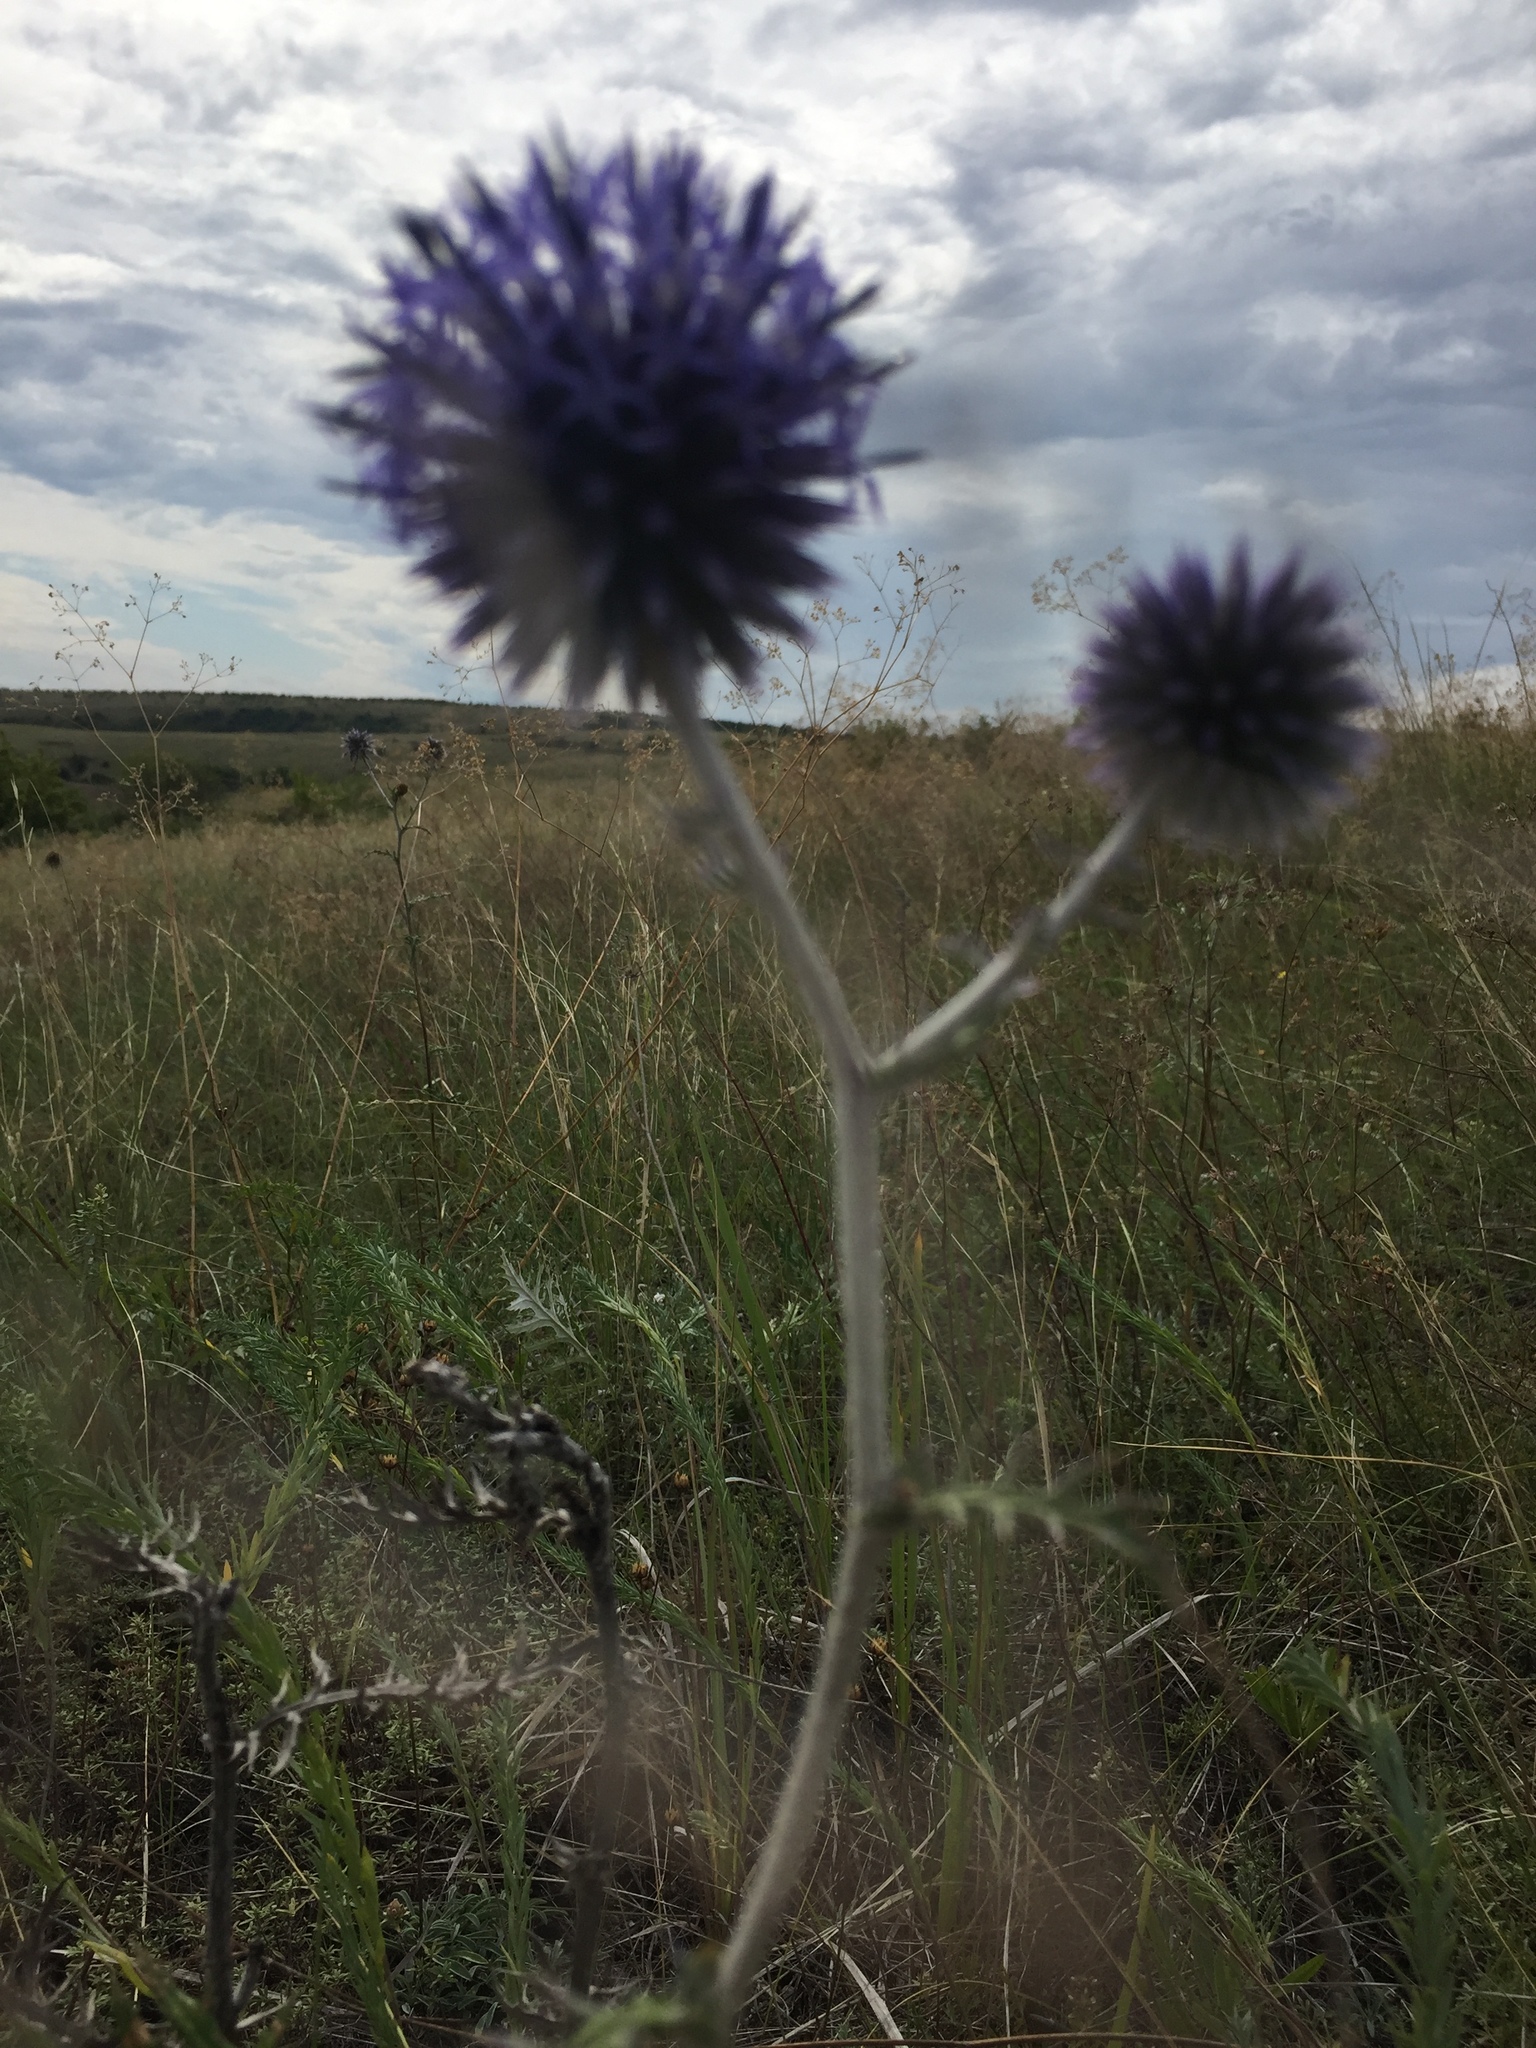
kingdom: Plantae
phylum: Tracheophyta
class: Magnoliopsida
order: Asterales
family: Asteraceae
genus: Echinops
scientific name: Echinops ritro
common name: Globe thistle
